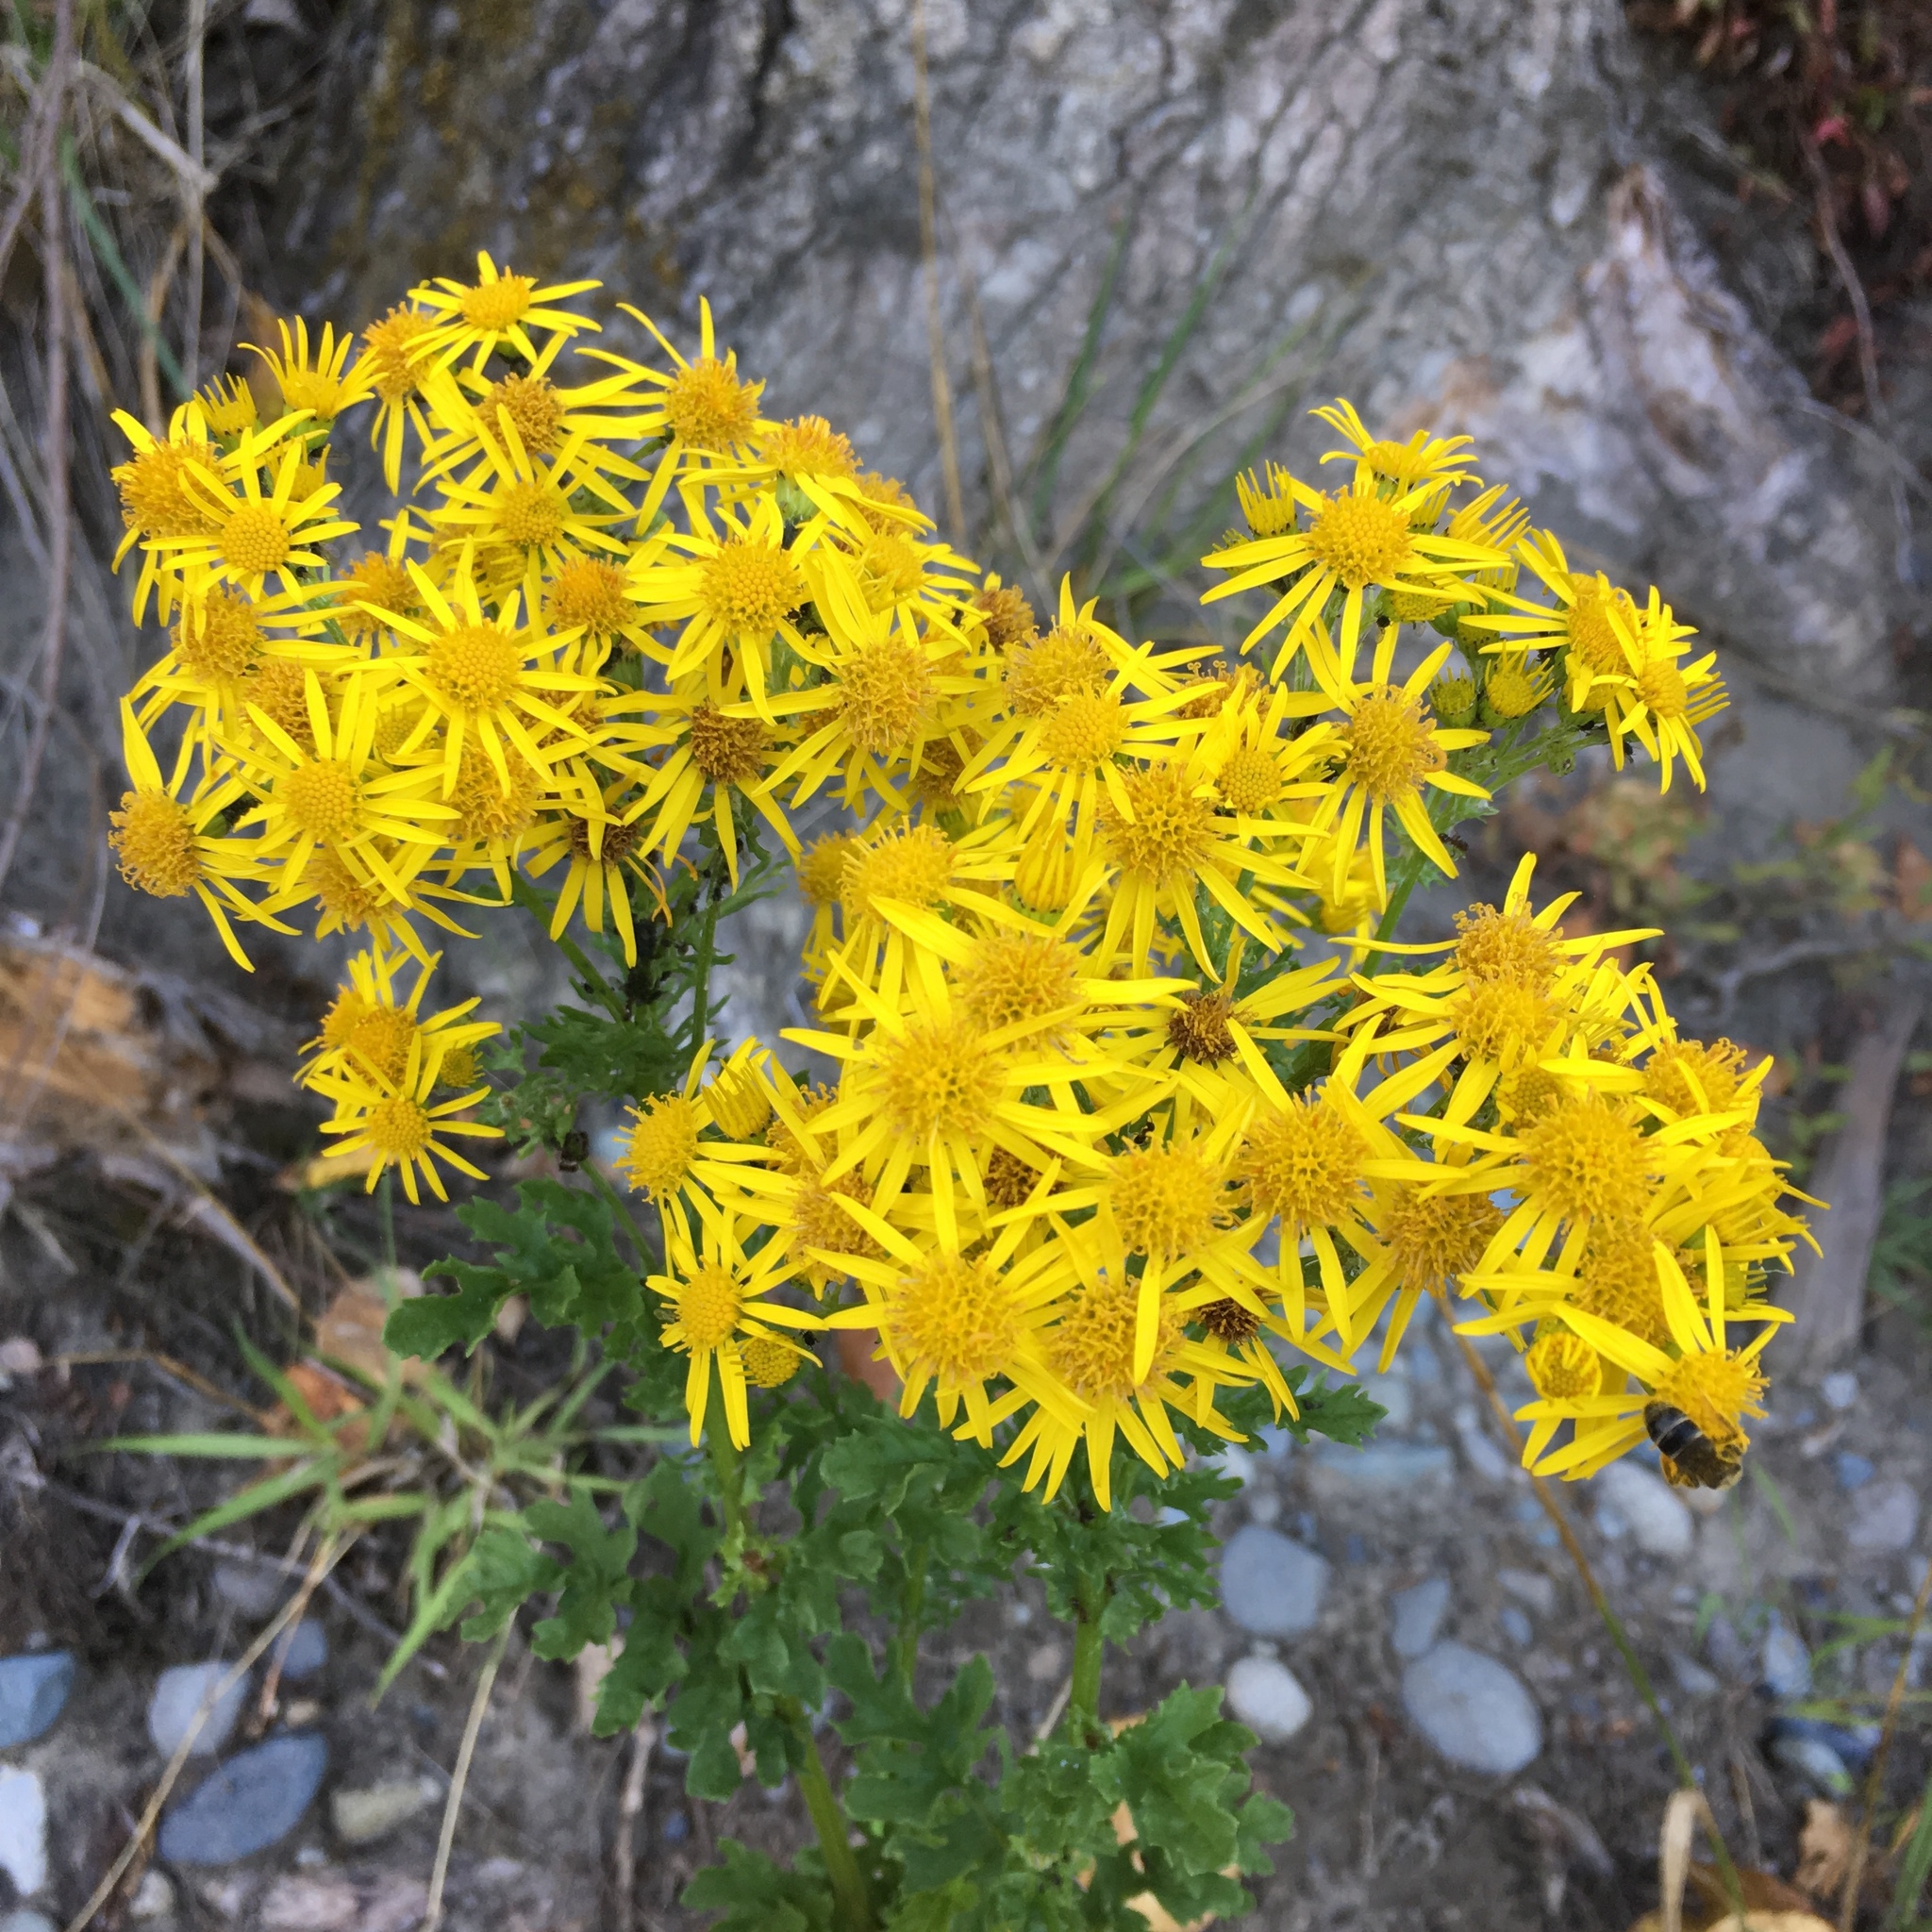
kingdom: Plantae
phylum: Tracheophyta
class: Magnoliopsida
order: Asterales
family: Asteraceae
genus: Jacobaea
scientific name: Jacobaea vulgaris
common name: Stinking willie
